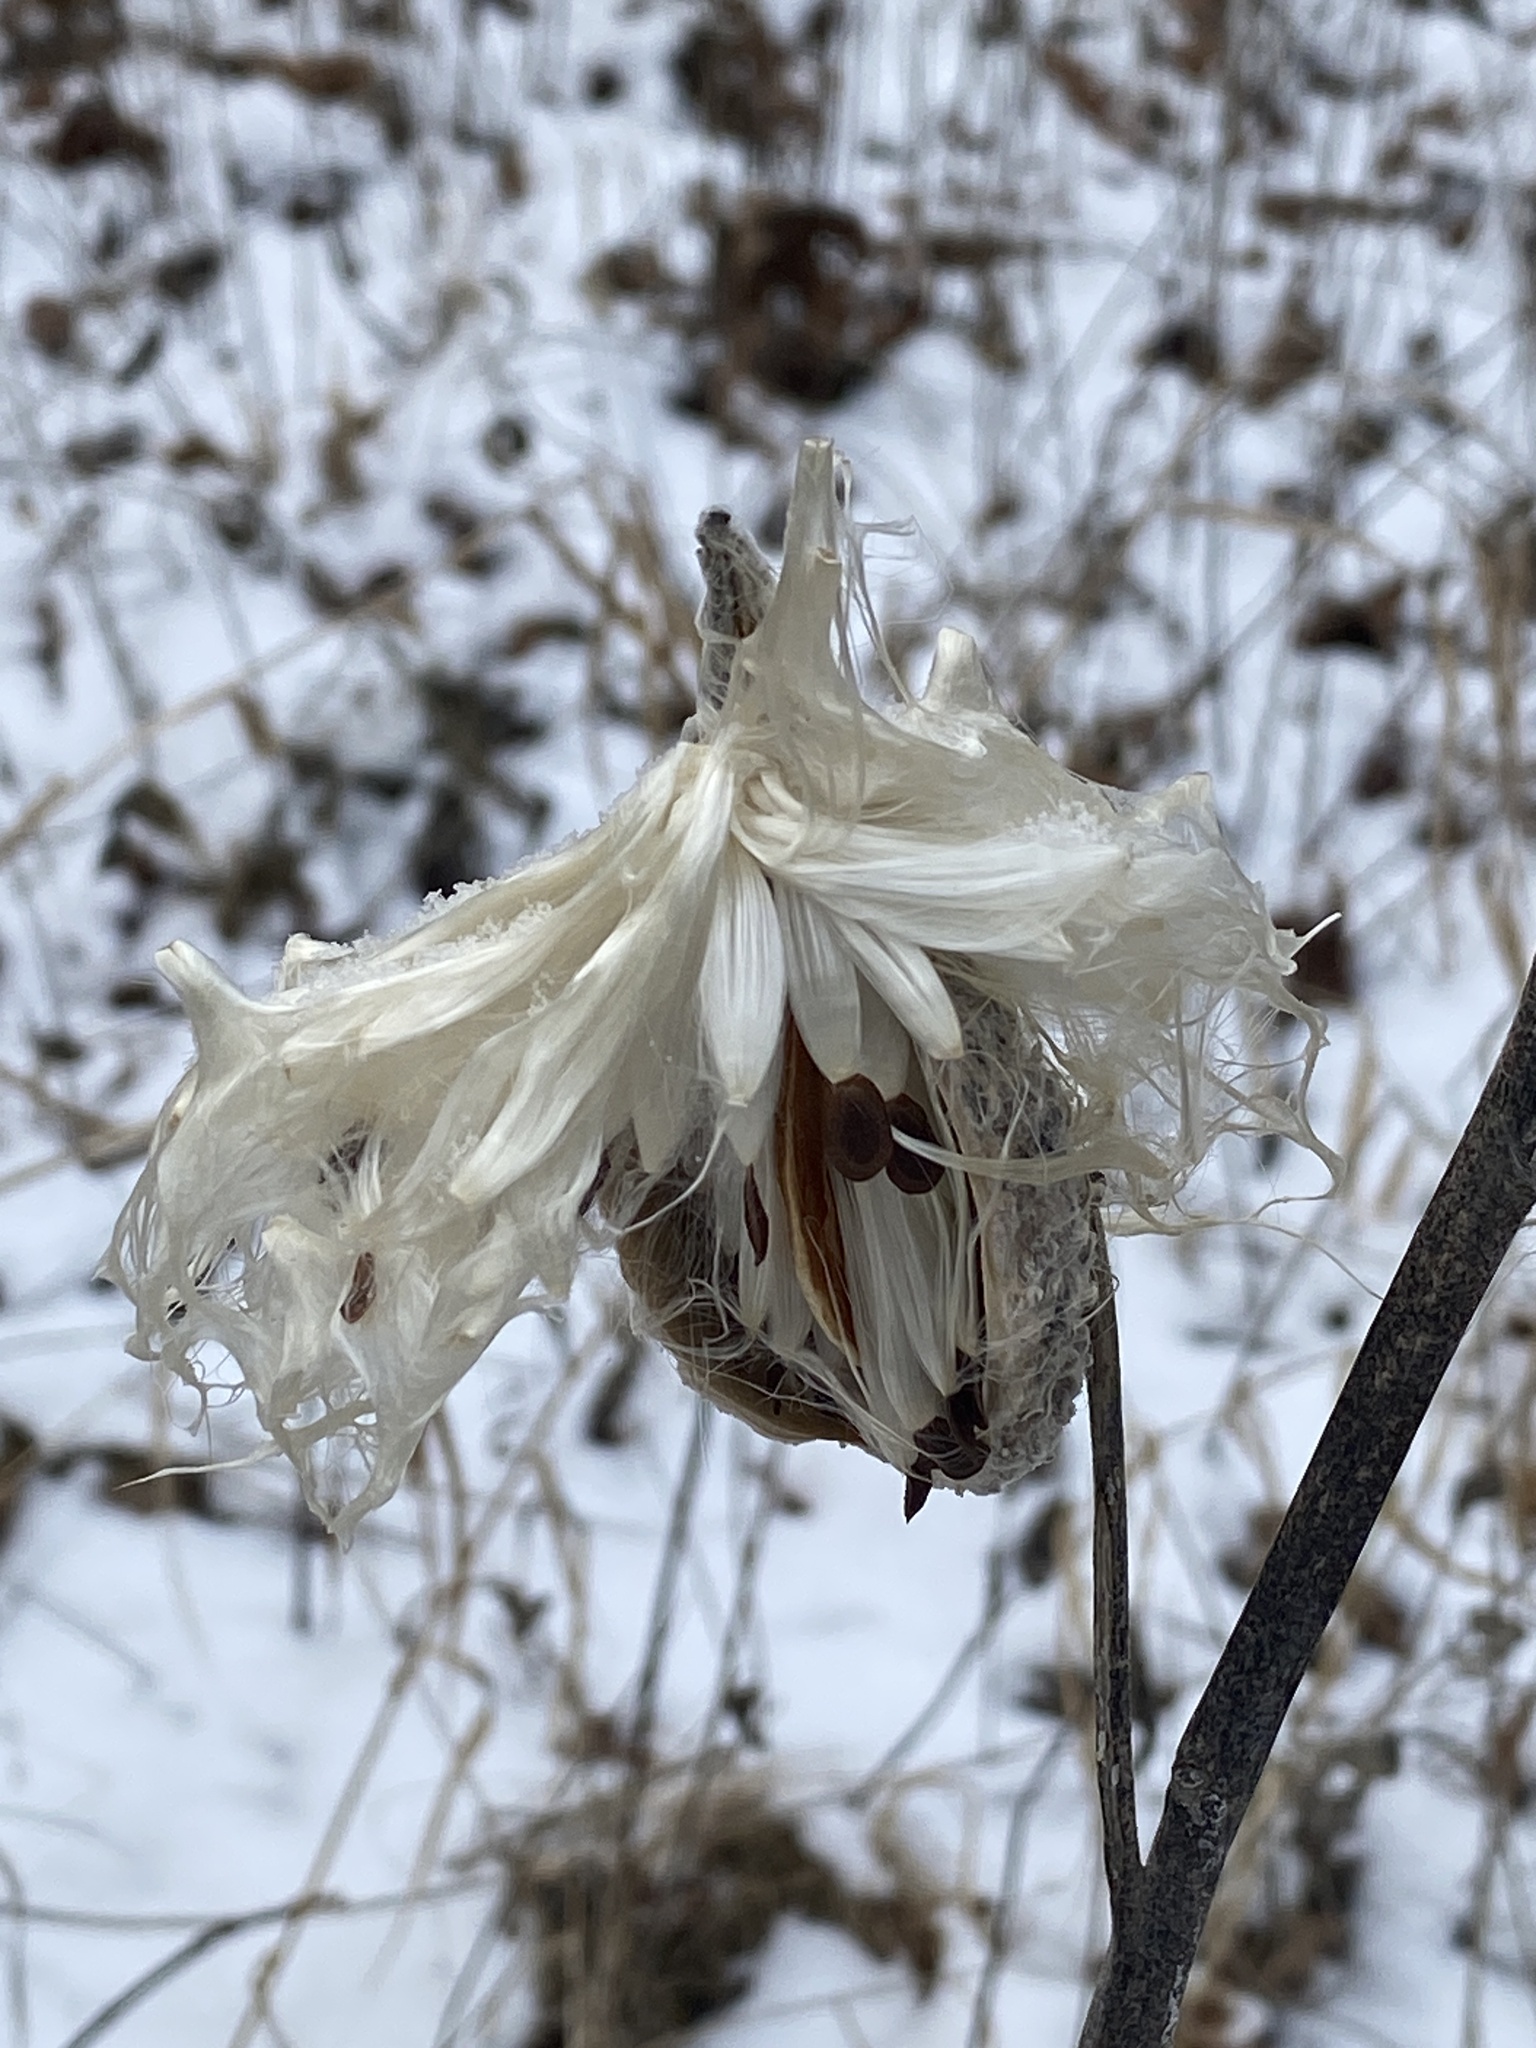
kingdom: Plantae
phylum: Tracheophyta
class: Magnoliopsida
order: Gentianales
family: Apocynaceae
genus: Asclepias
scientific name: Asclepias syriaca
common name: Common milkweed
